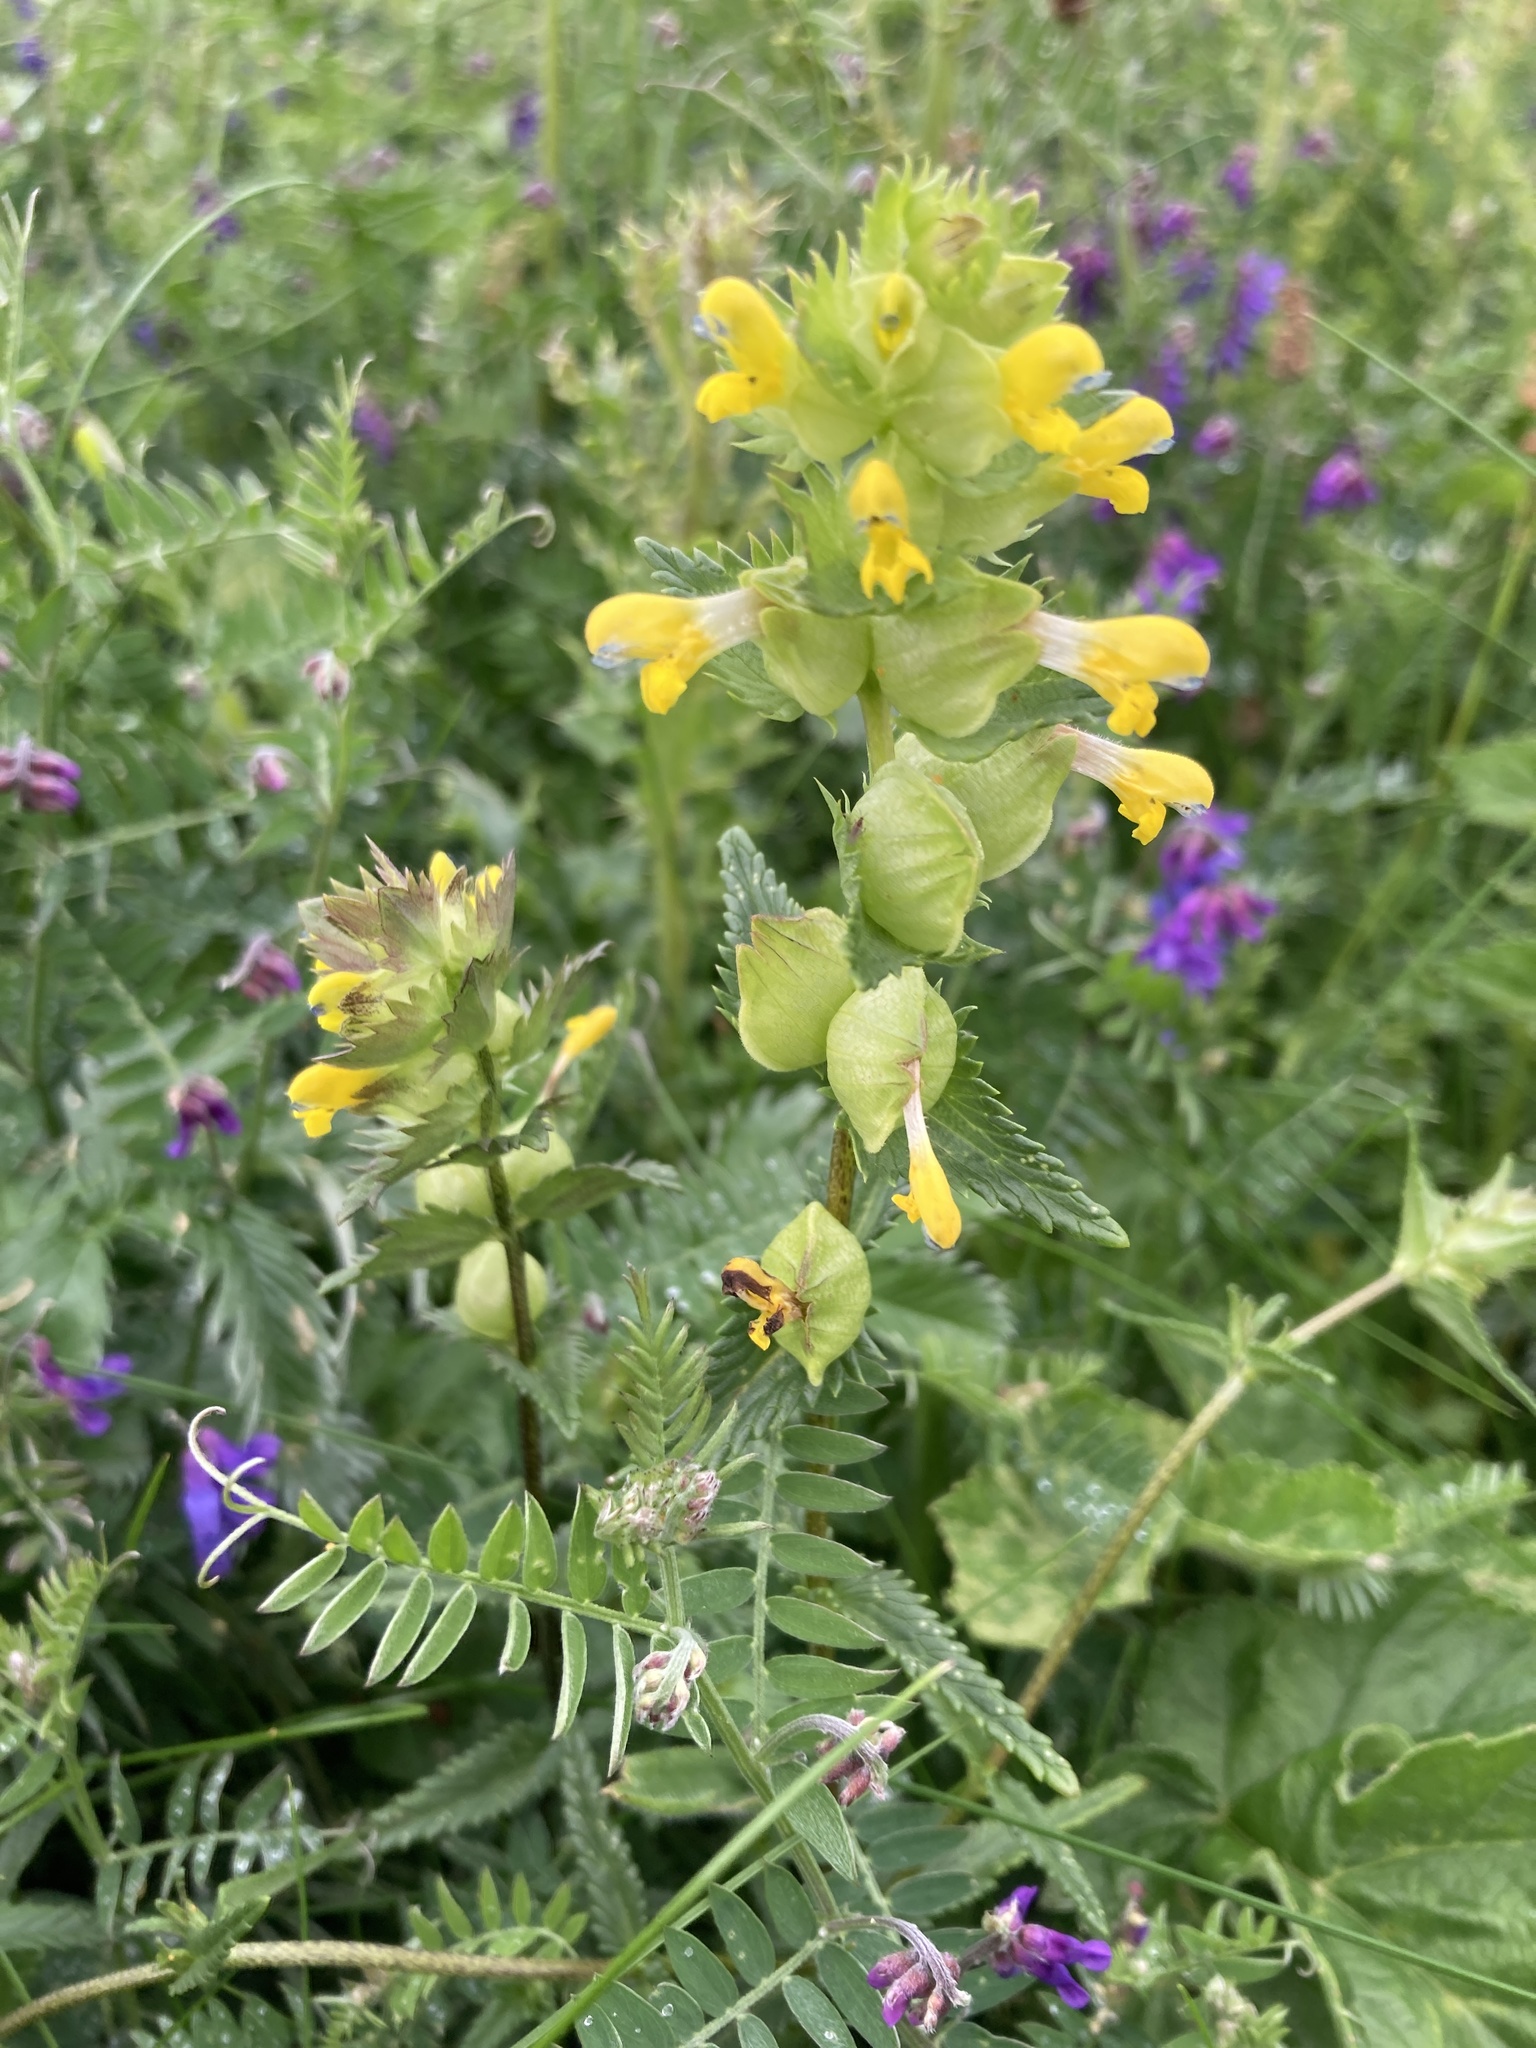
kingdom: Plantae
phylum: Tracheophyta
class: Magnoliopsida
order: Lamiales
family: Orobanchaceae
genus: Rhinanthus
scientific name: Rhinanthus minor
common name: Yellow-rattle
